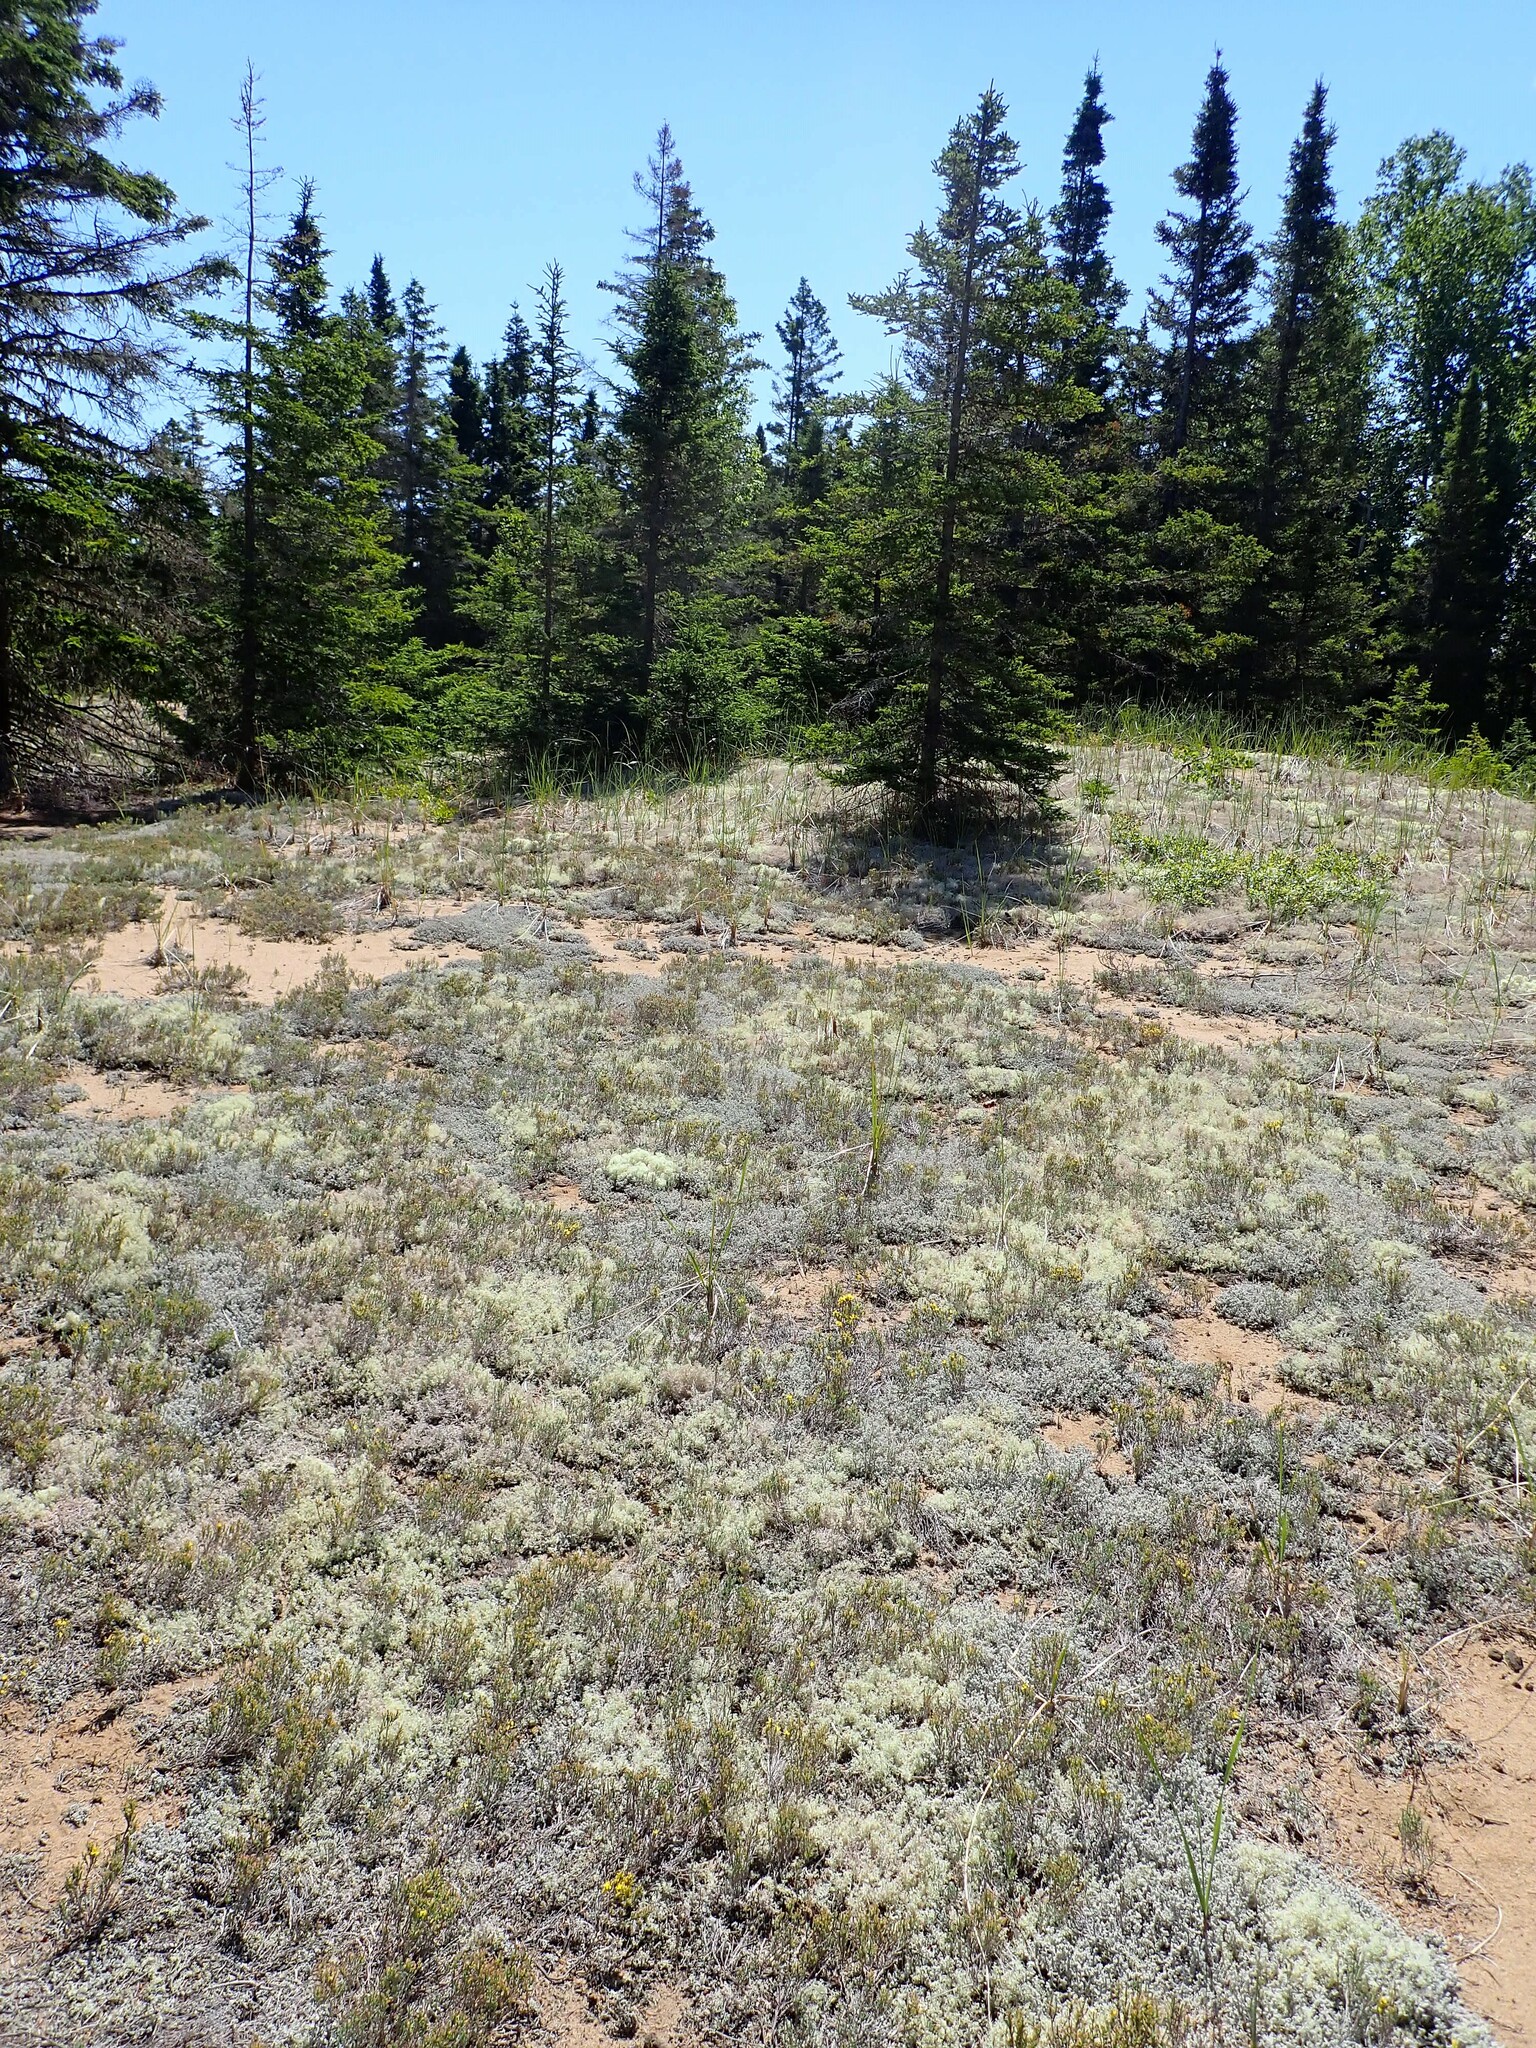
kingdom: Plantae
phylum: Tracheophyta
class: Magnoliopsida
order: Malvales
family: Cistaceae
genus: Hudsonia
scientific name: Hudsonia tomentosa
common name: Beach-heath
